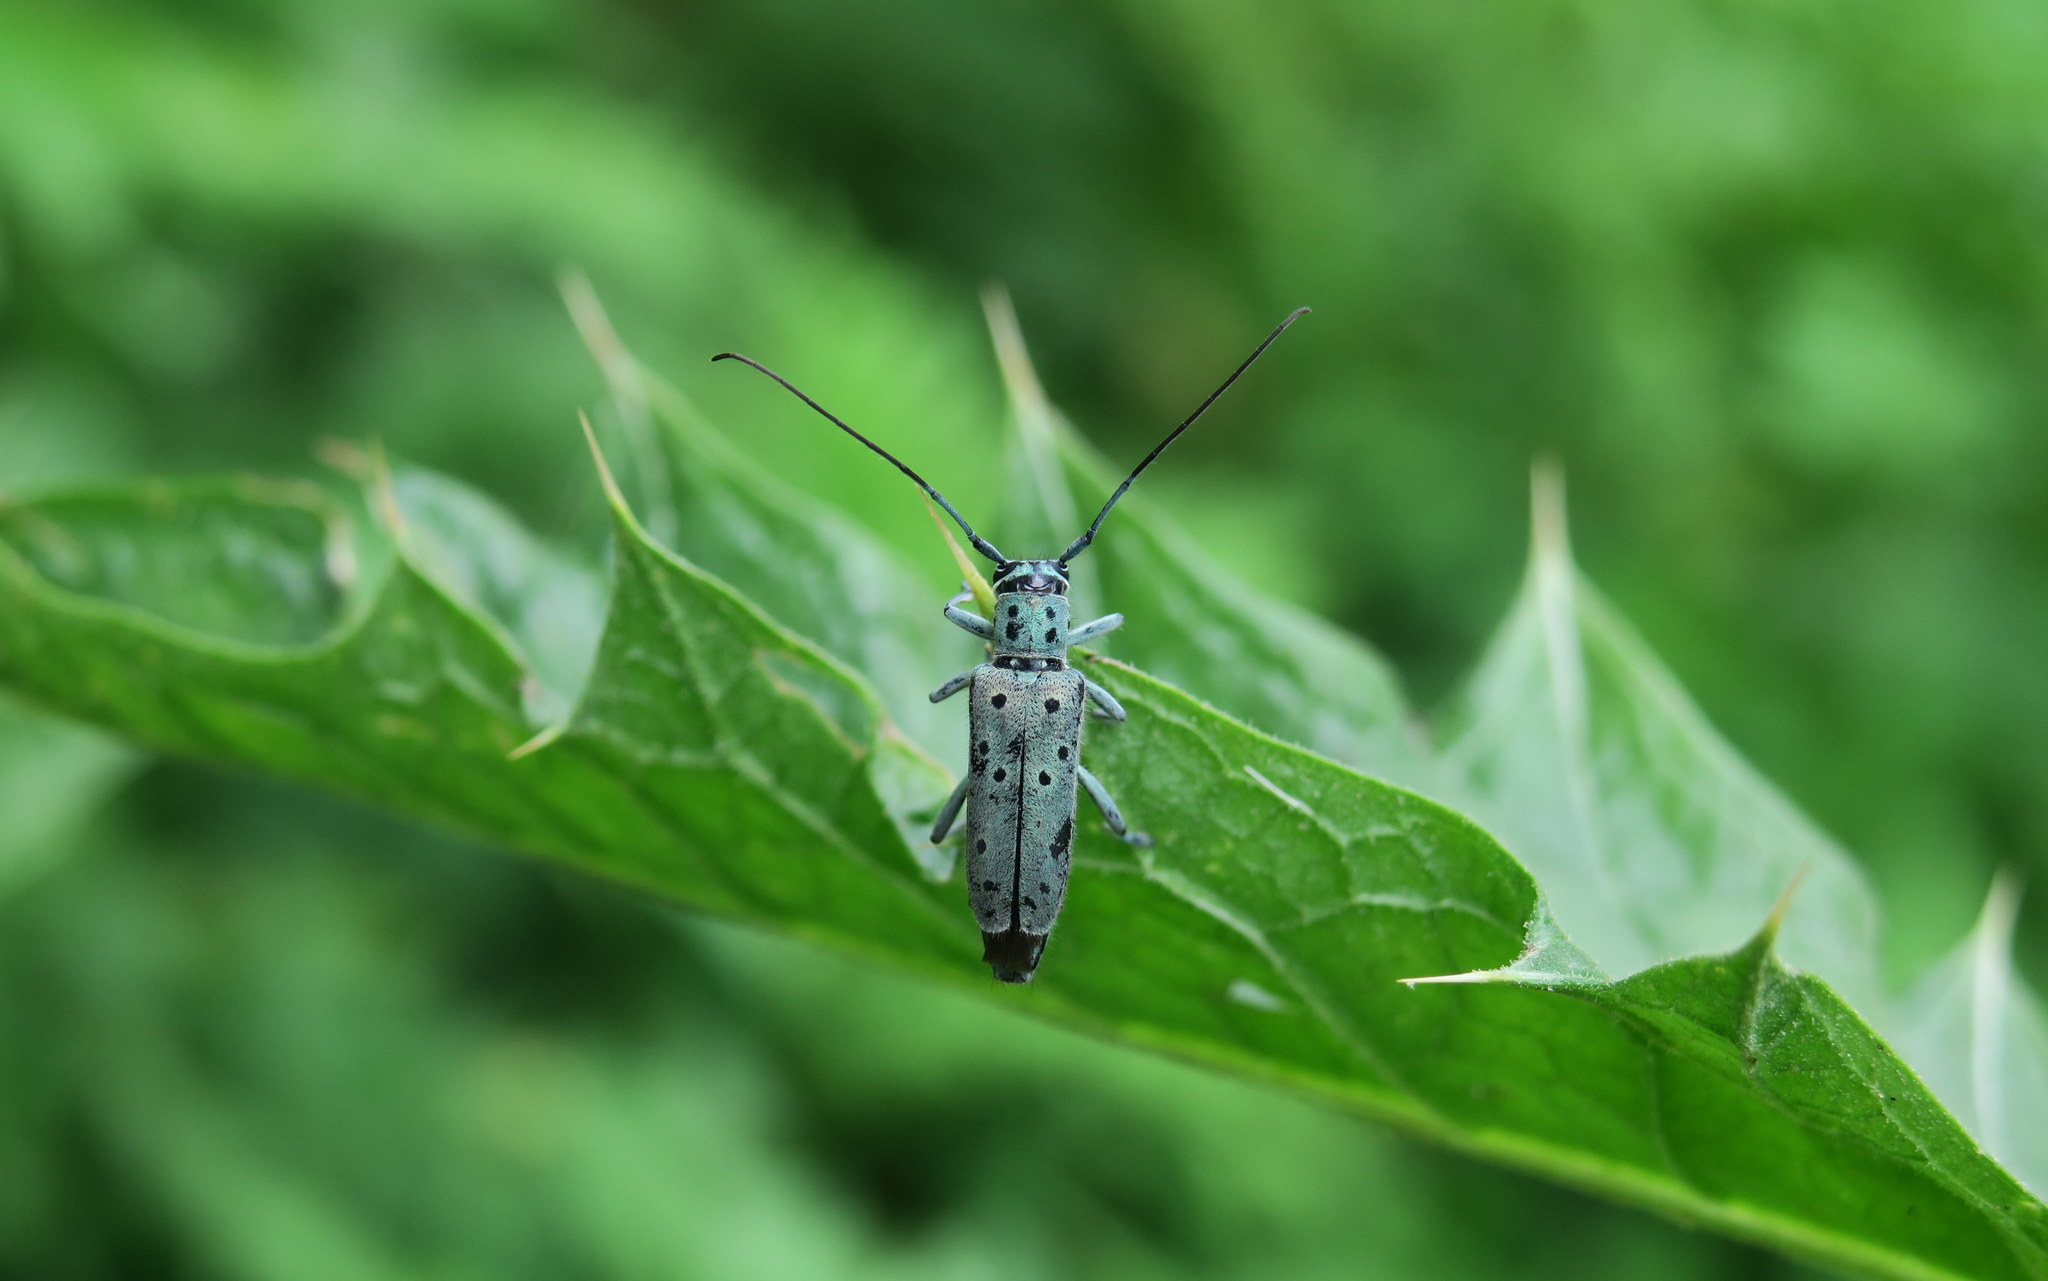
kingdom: Animalia
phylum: Arthropoda
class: Insecta
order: Coleoptera
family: Cerambycidae
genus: Saperda
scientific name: Saperda punctata
